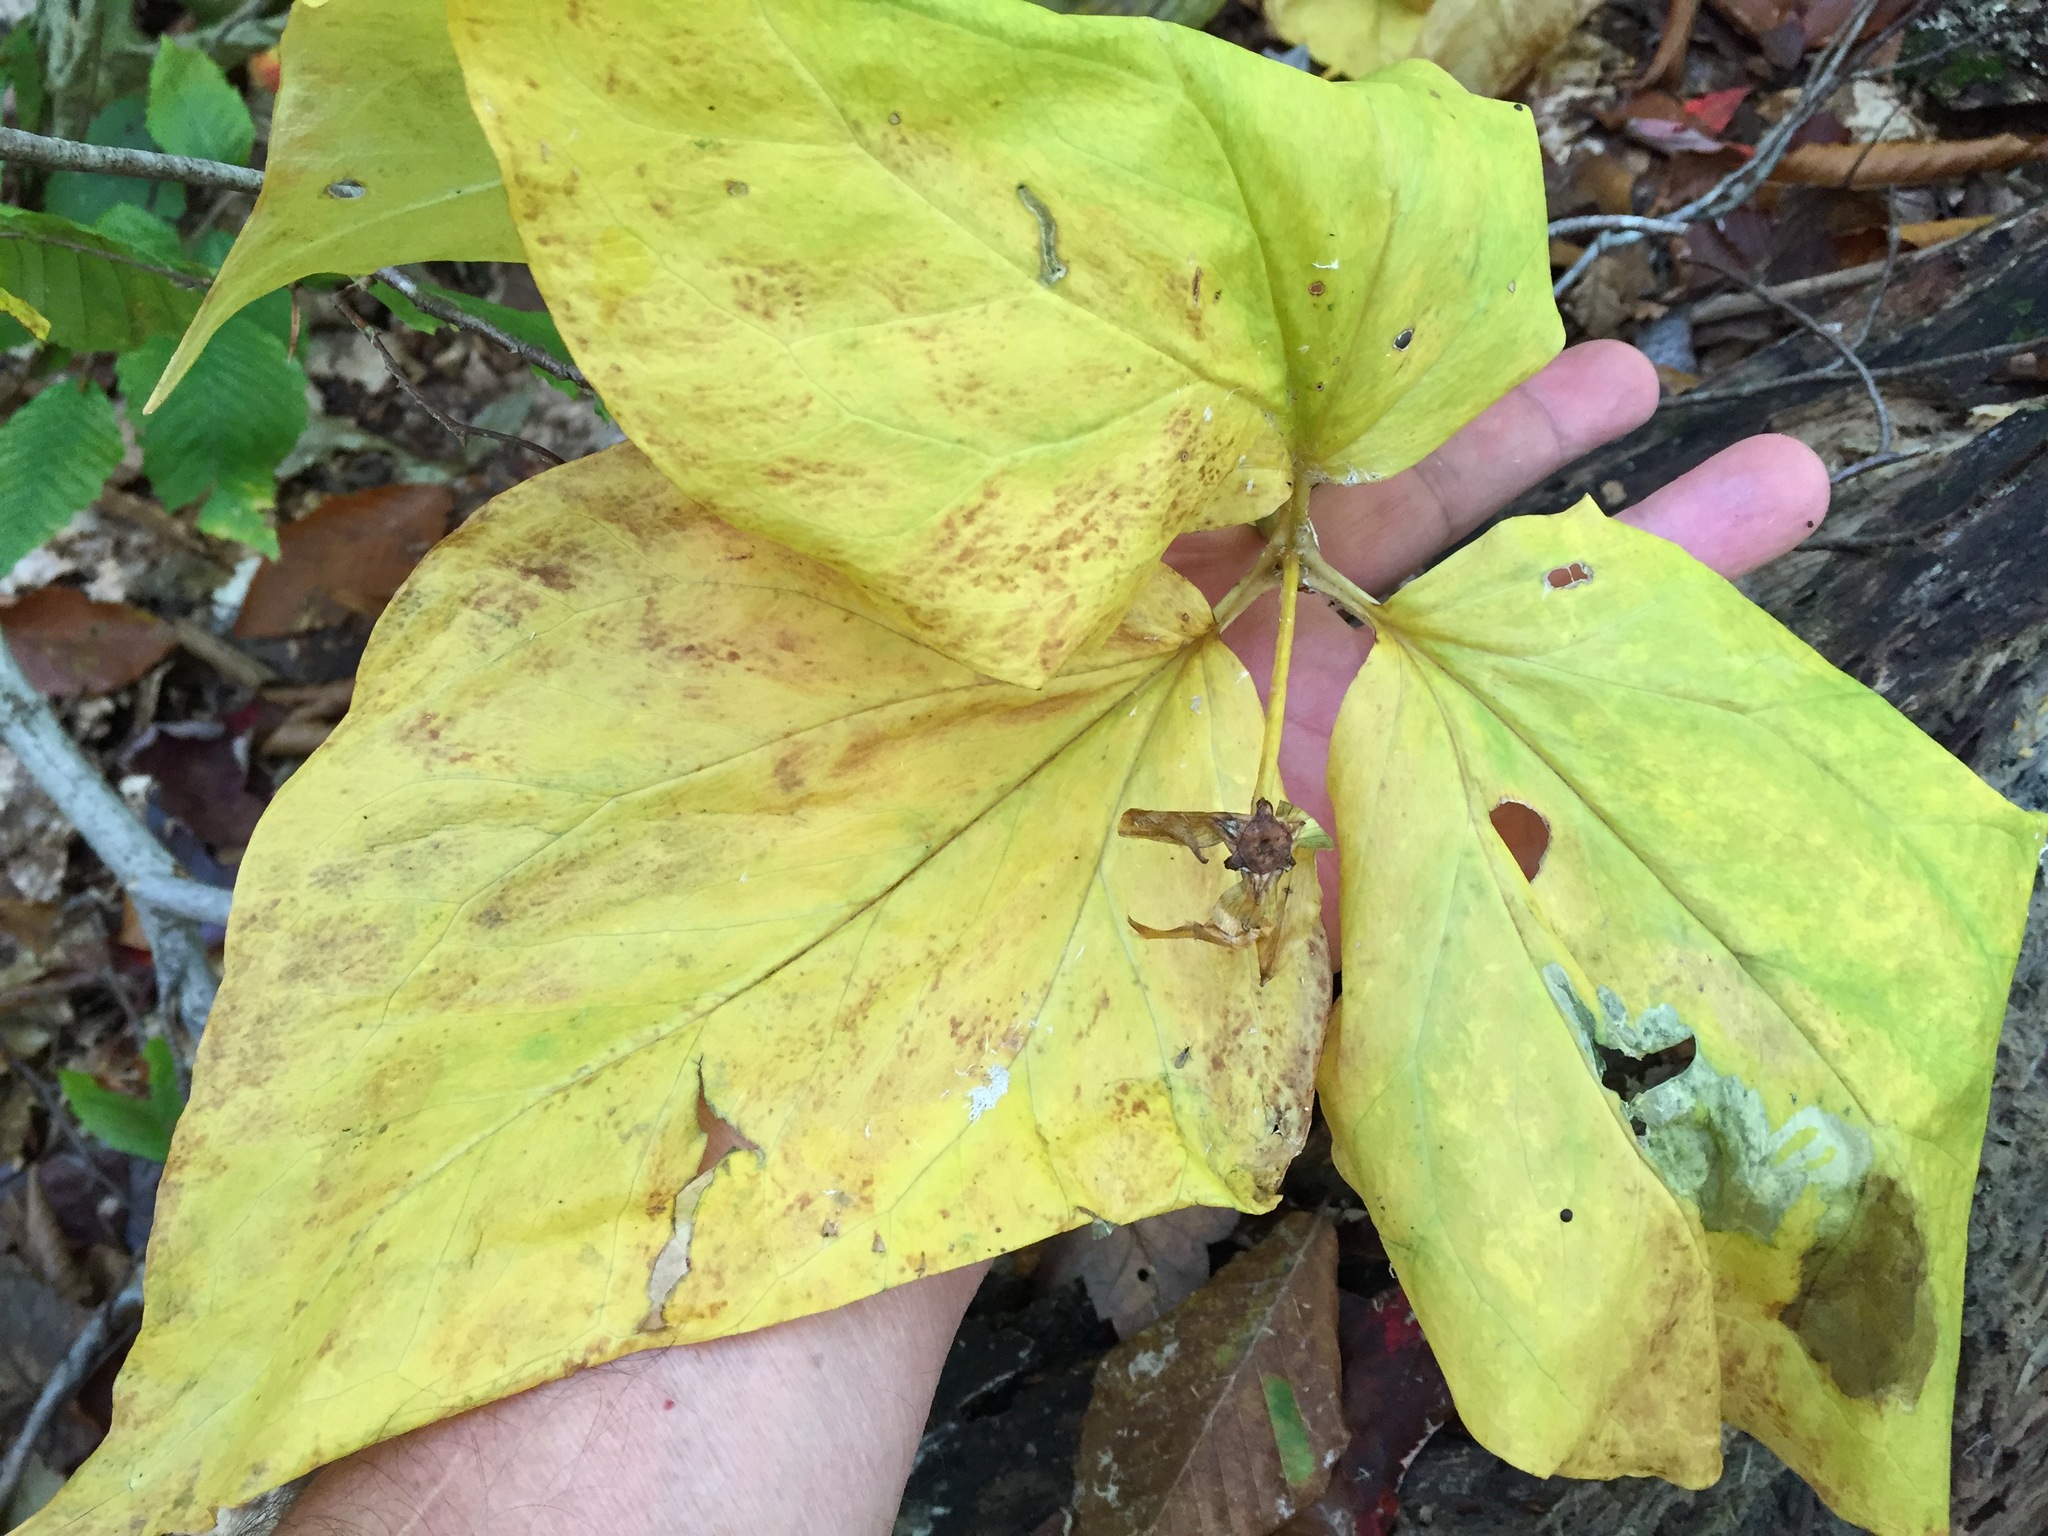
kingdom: Plantae
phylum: Tracheophyta
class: Liliopsida
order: Liliales
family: Melanthiaceae
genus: Trillium
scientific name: Trillium undulatum
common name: Paint trillium
